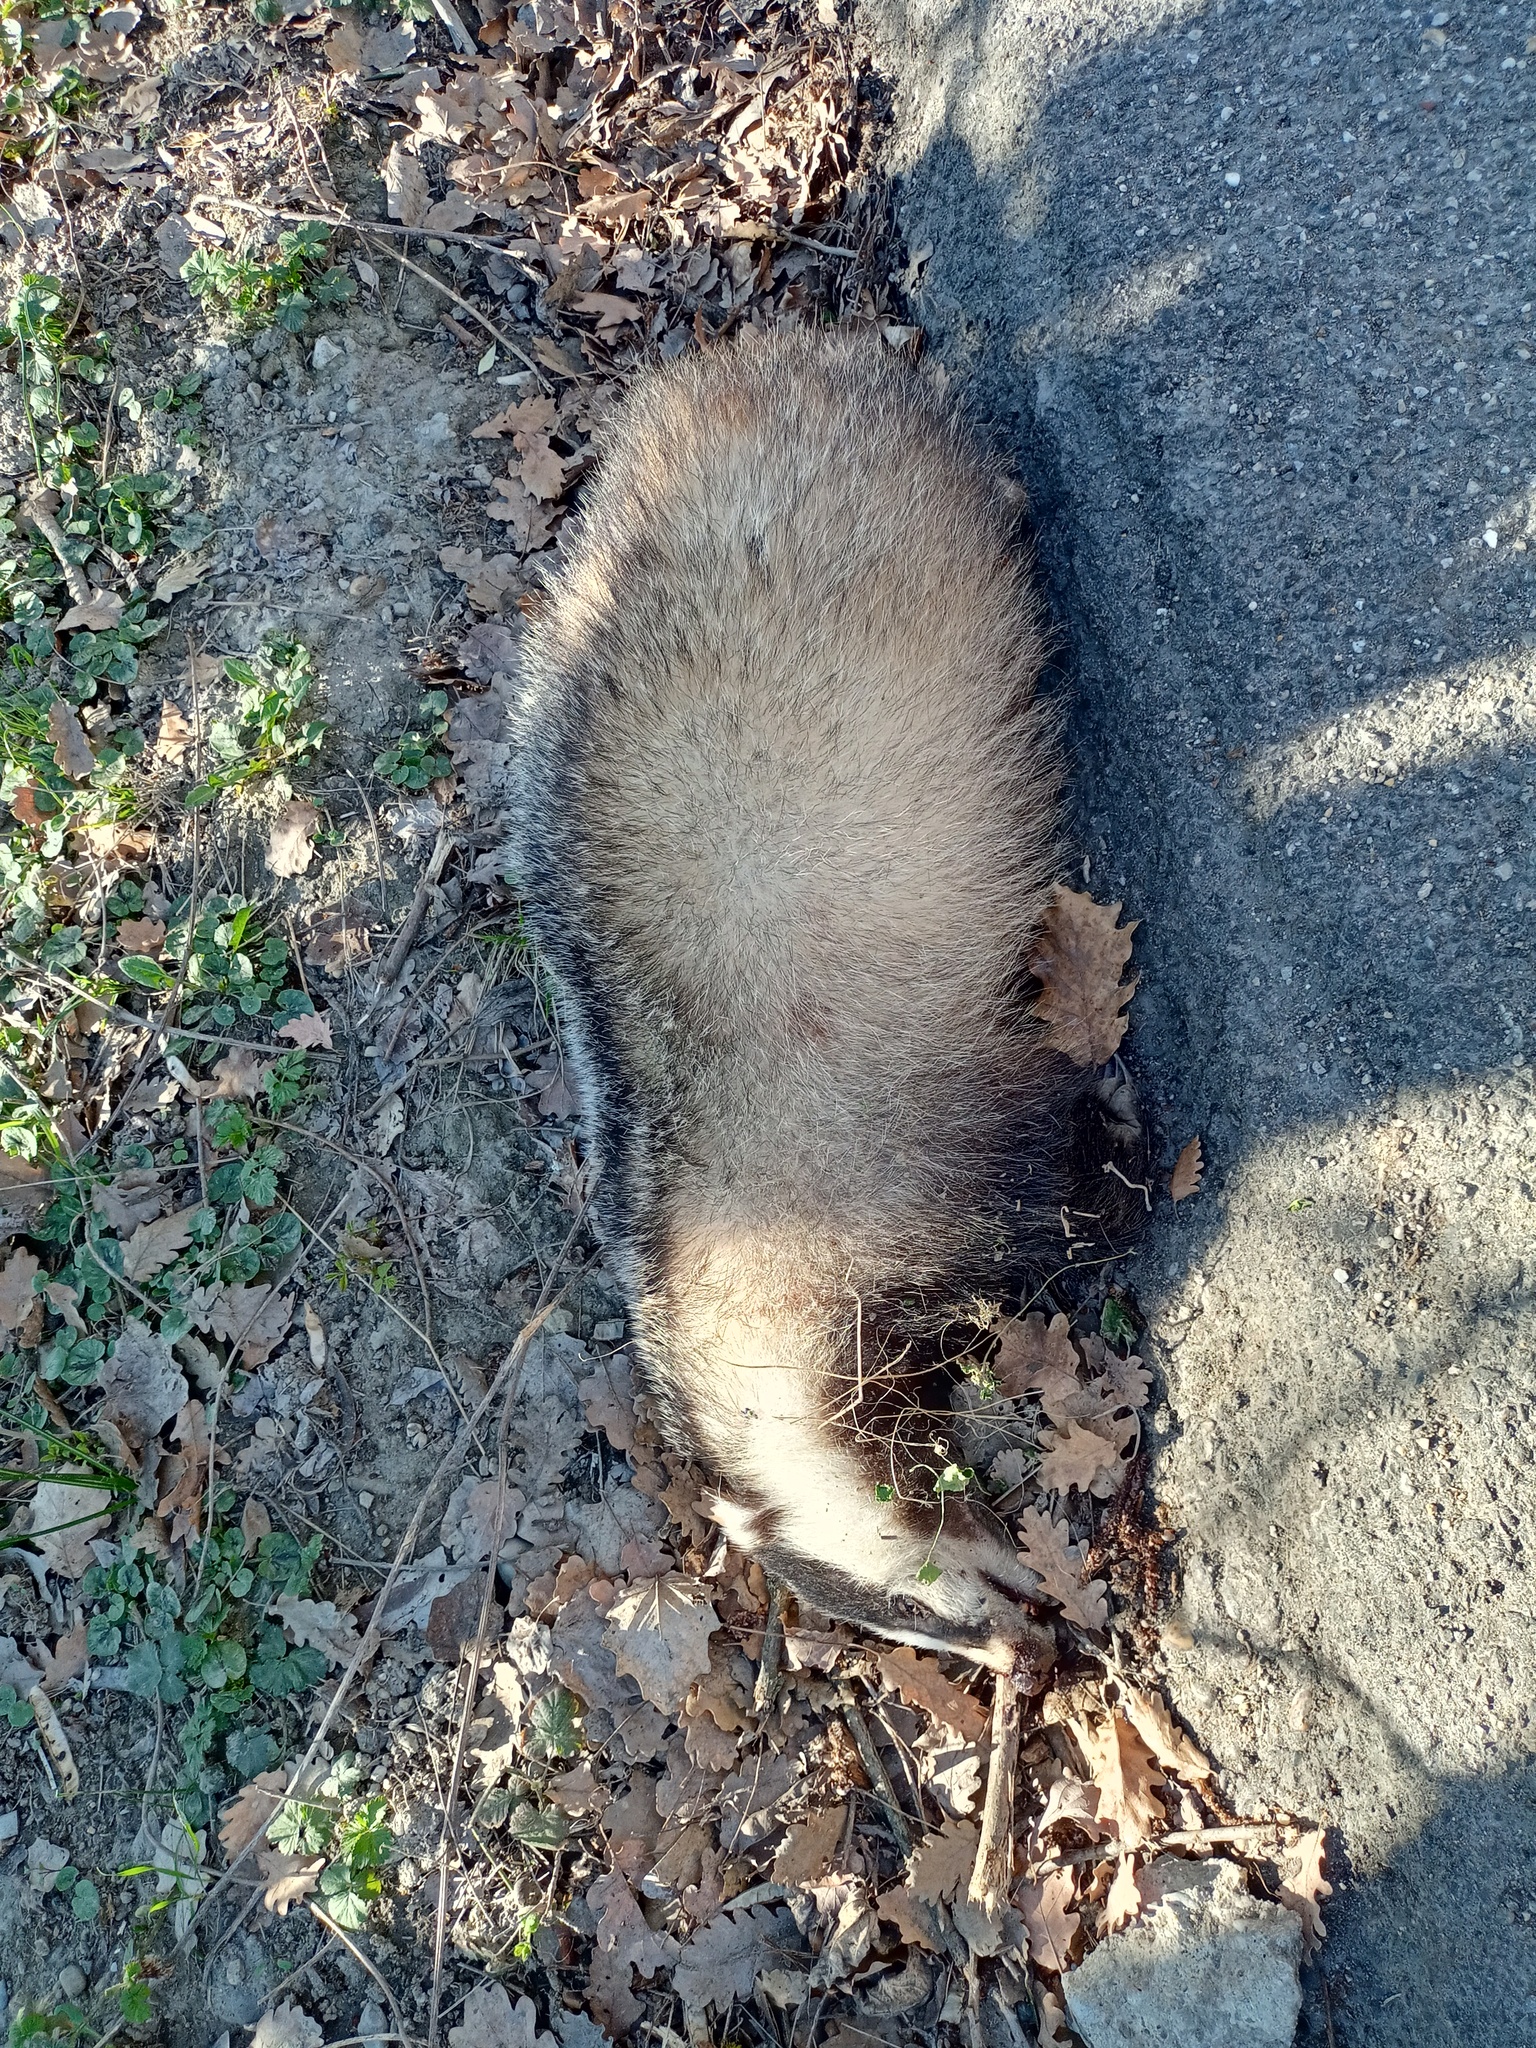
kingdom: Animalia
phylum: Chordata
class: Mammalia
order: Carnivora
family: Mustelidae
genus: Meles
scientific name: Meles meles
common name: Eurasian badger
